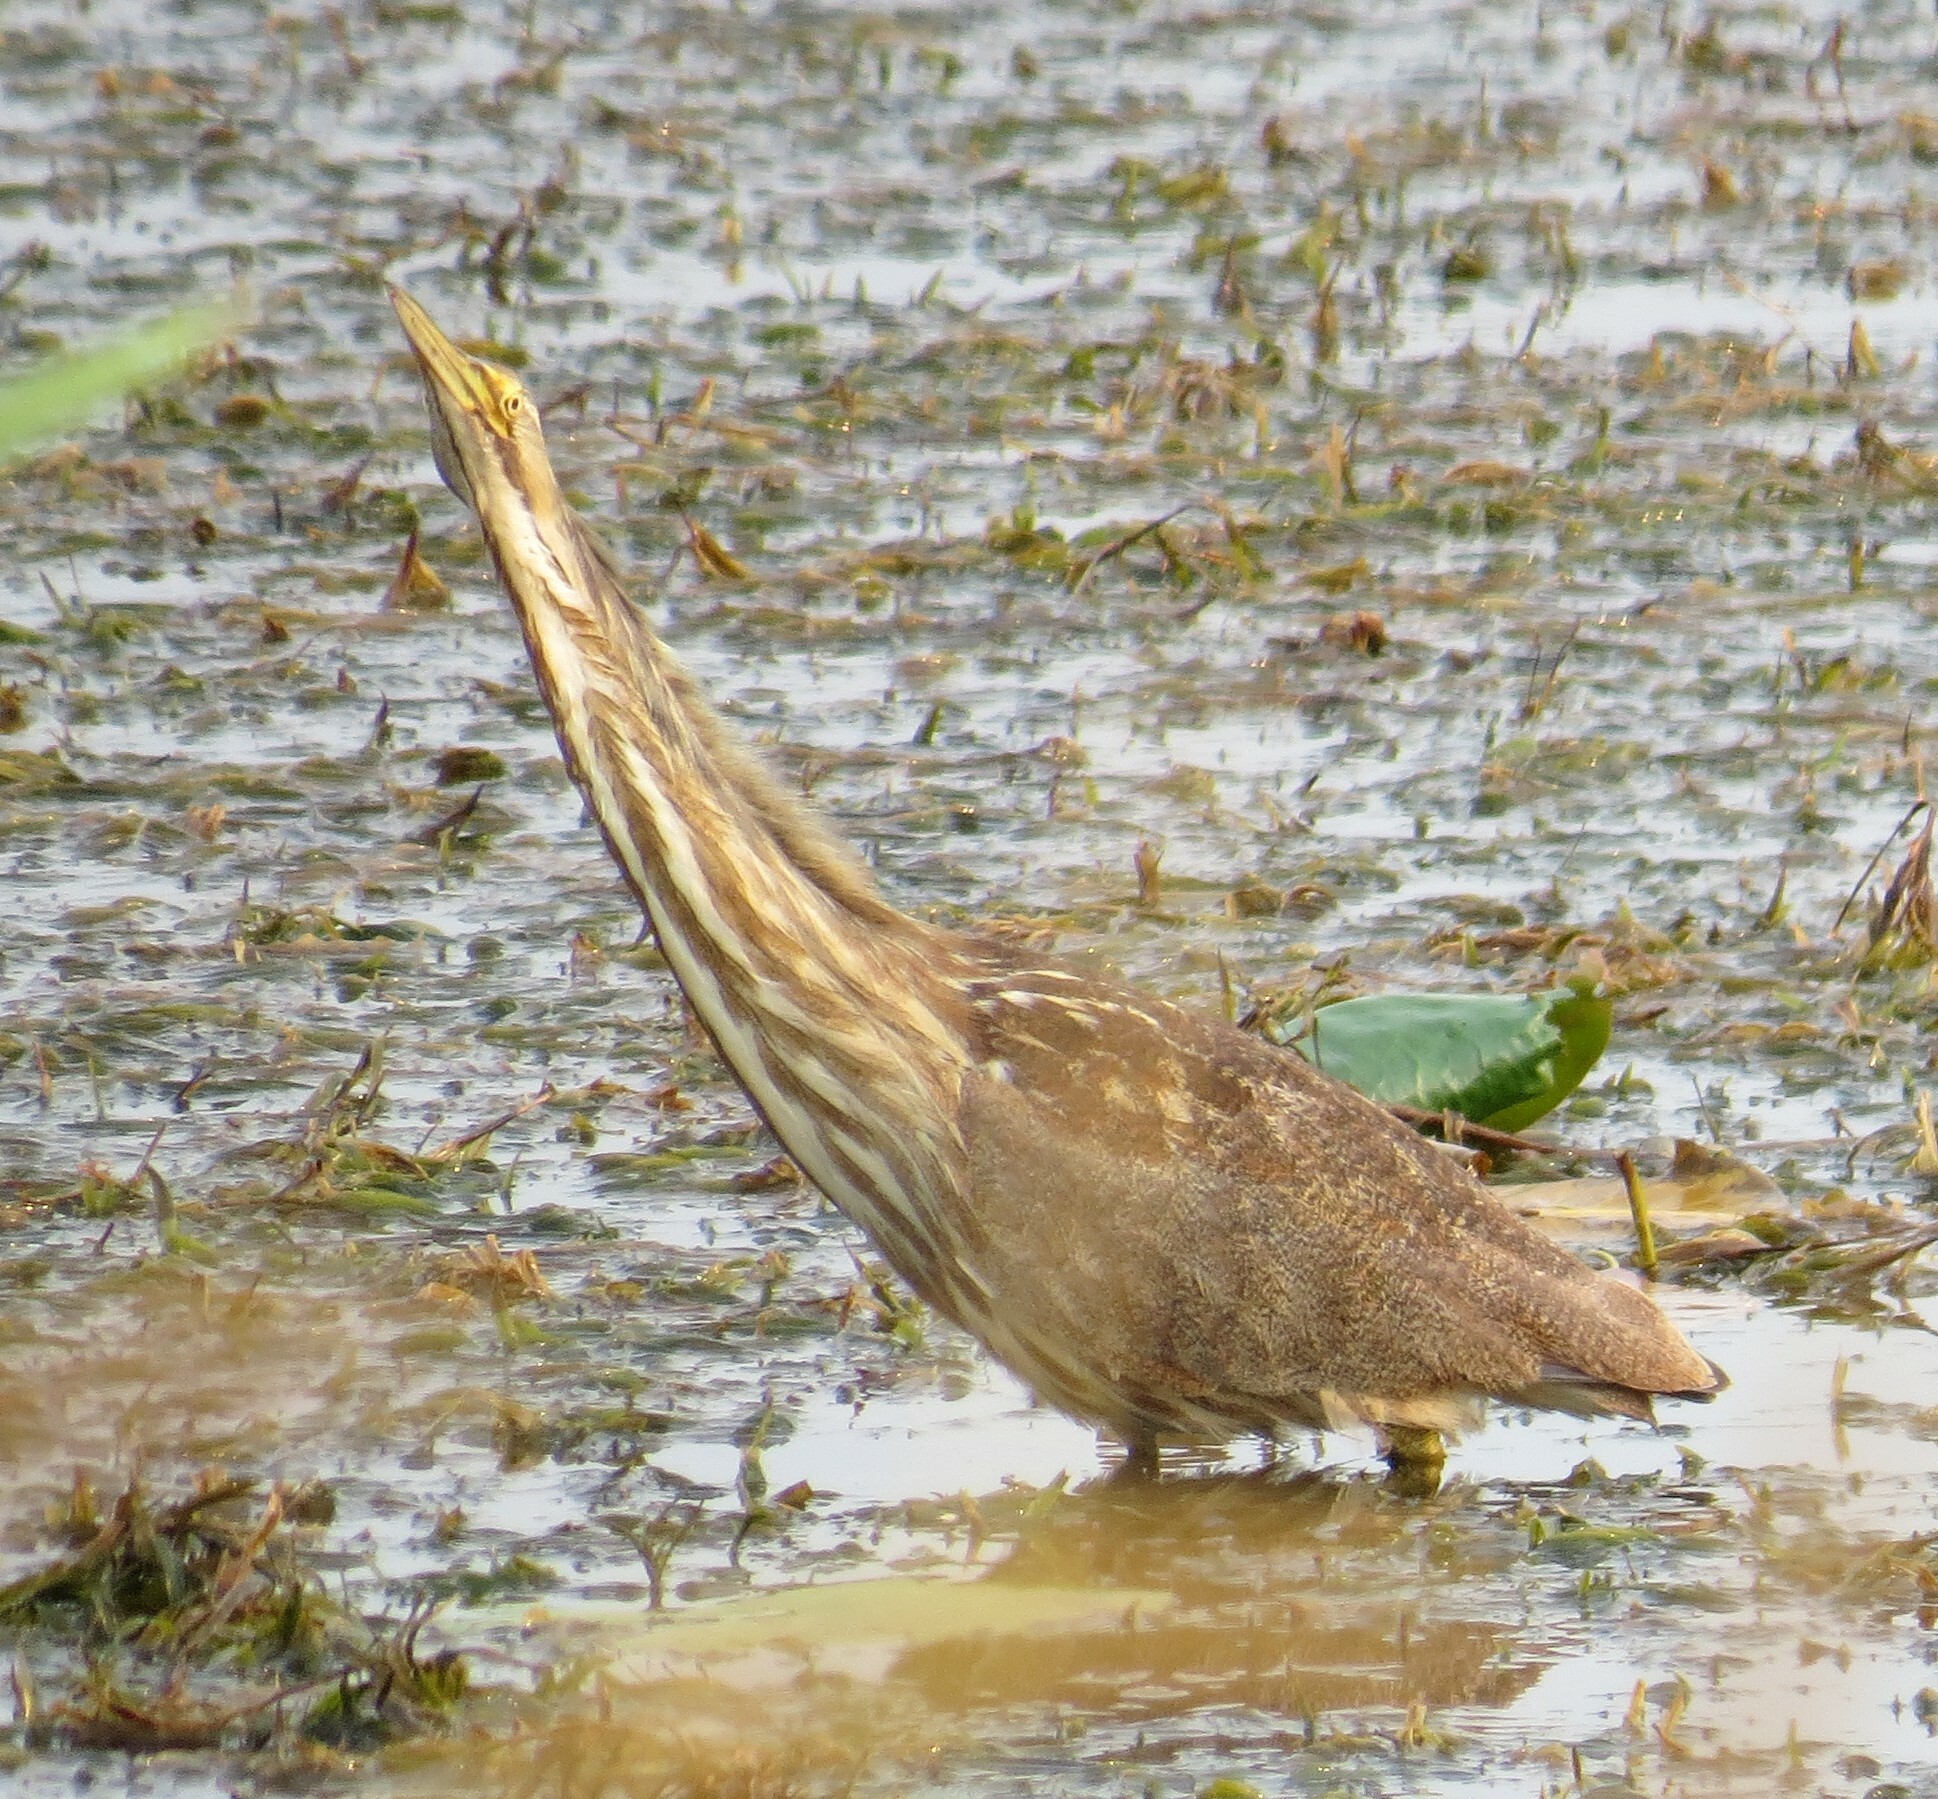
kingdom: Animalia
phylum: Chordata
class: Aves
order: Pelecaniformes
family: Ardeidae
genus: Botaurus
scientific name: Botaurus lentiginosus
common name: American bittern
